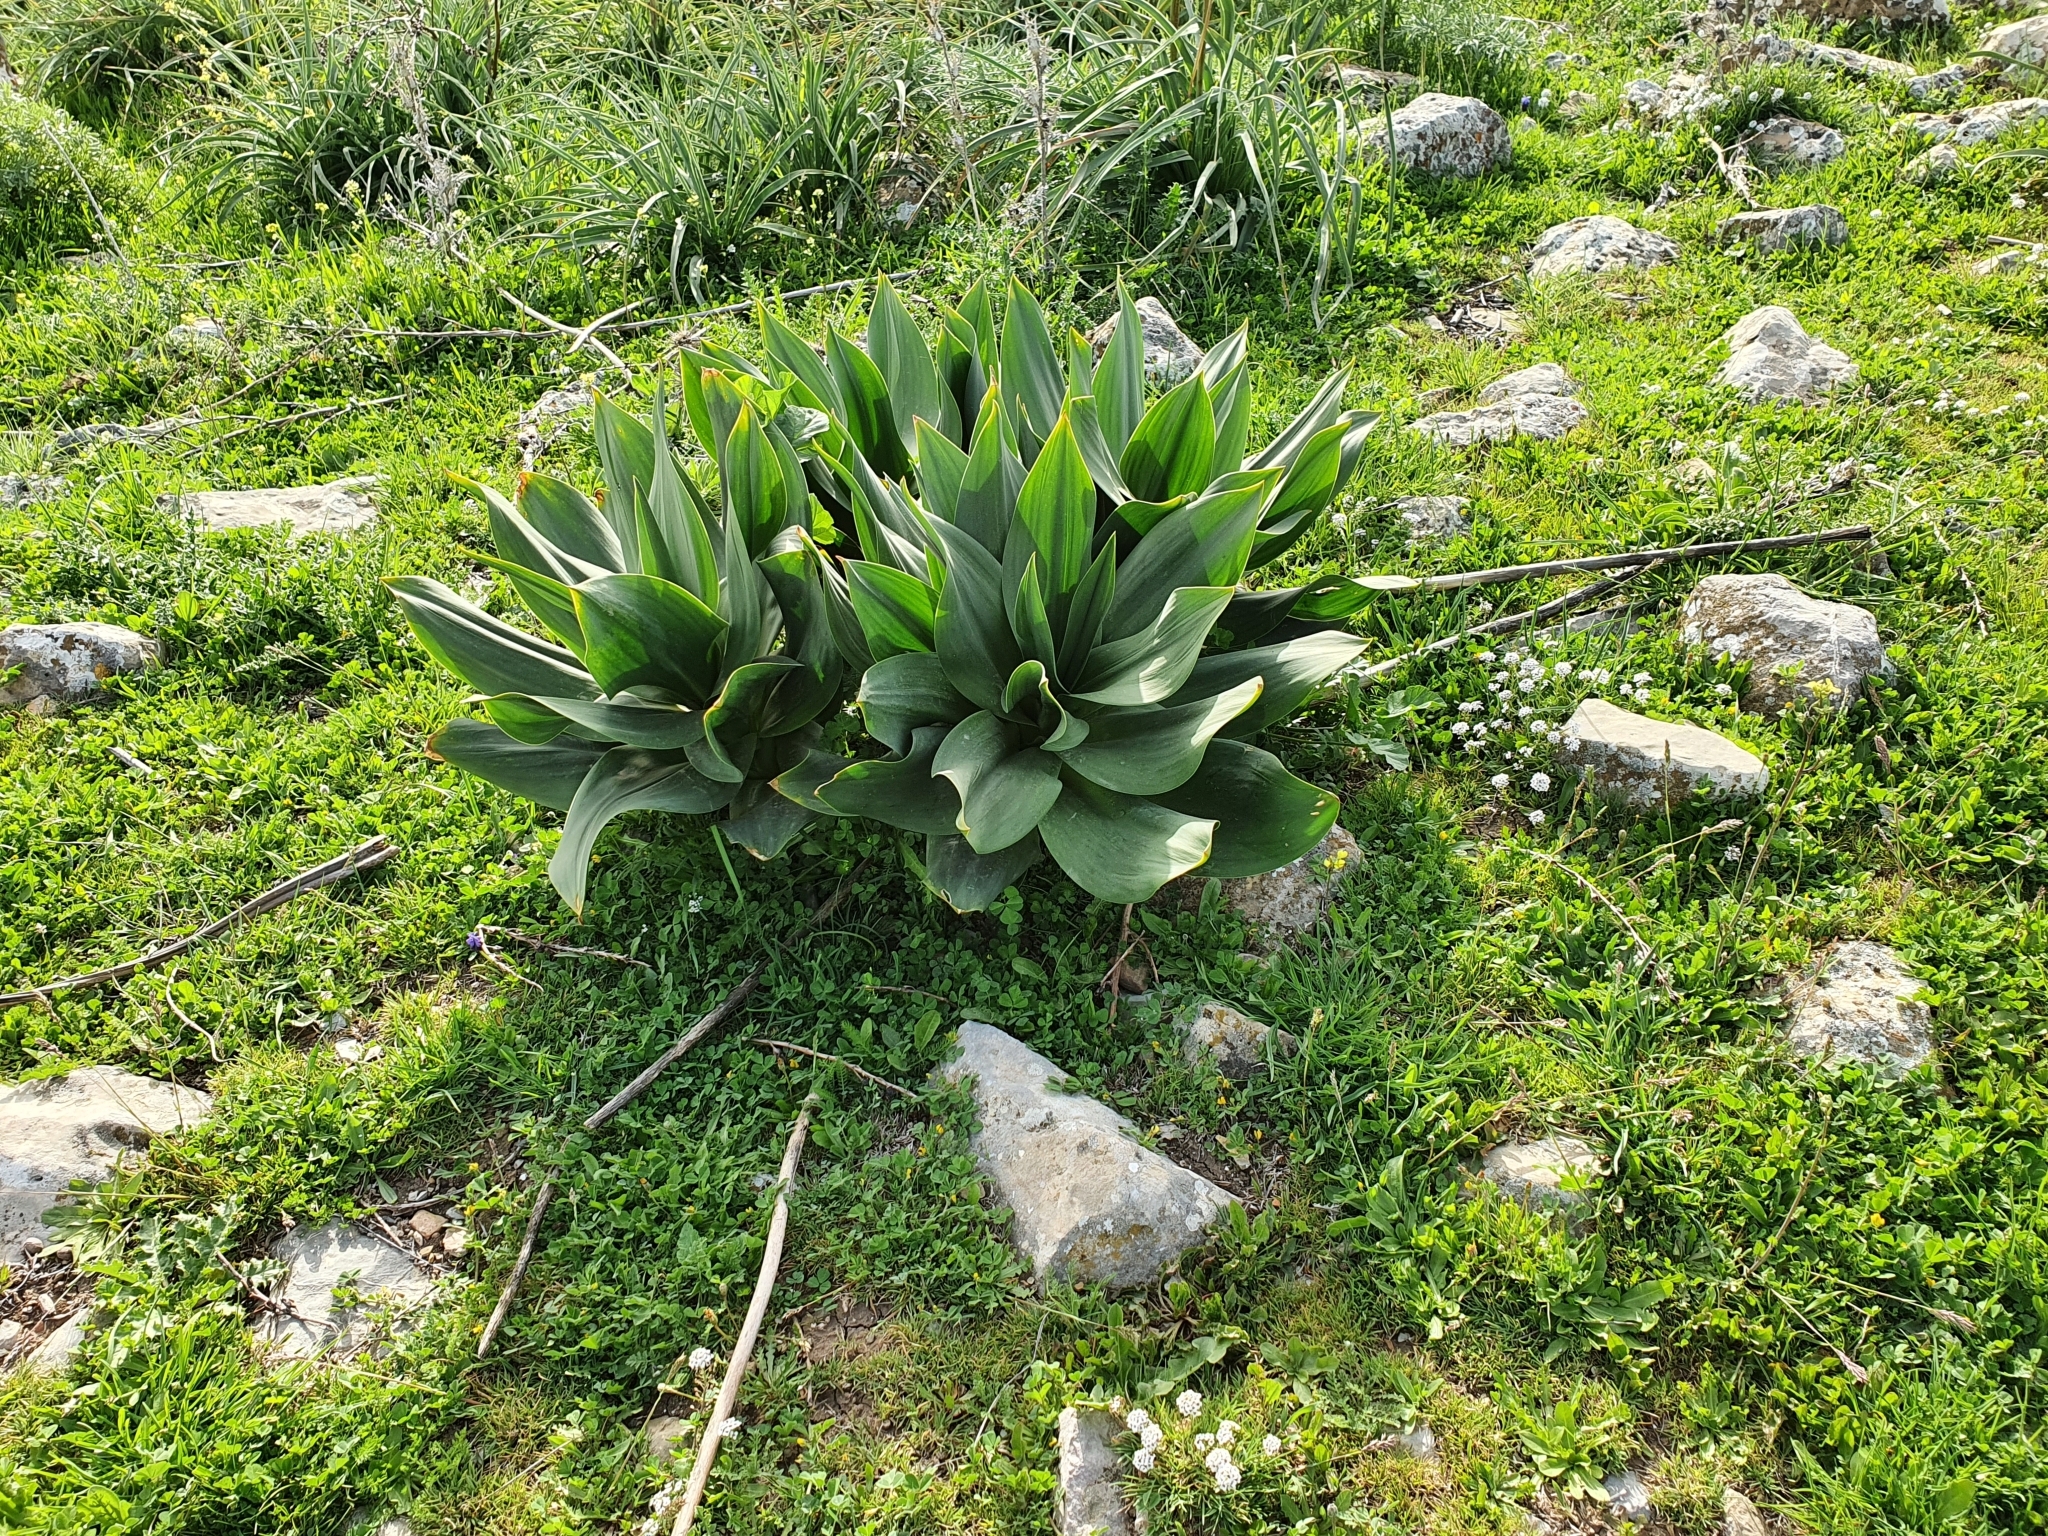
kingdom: Plantae
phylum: Tracheophyta
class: Liliopsida
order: Asparagales
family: Asparagaceae
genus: Drimia
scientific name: Drimia numidica
